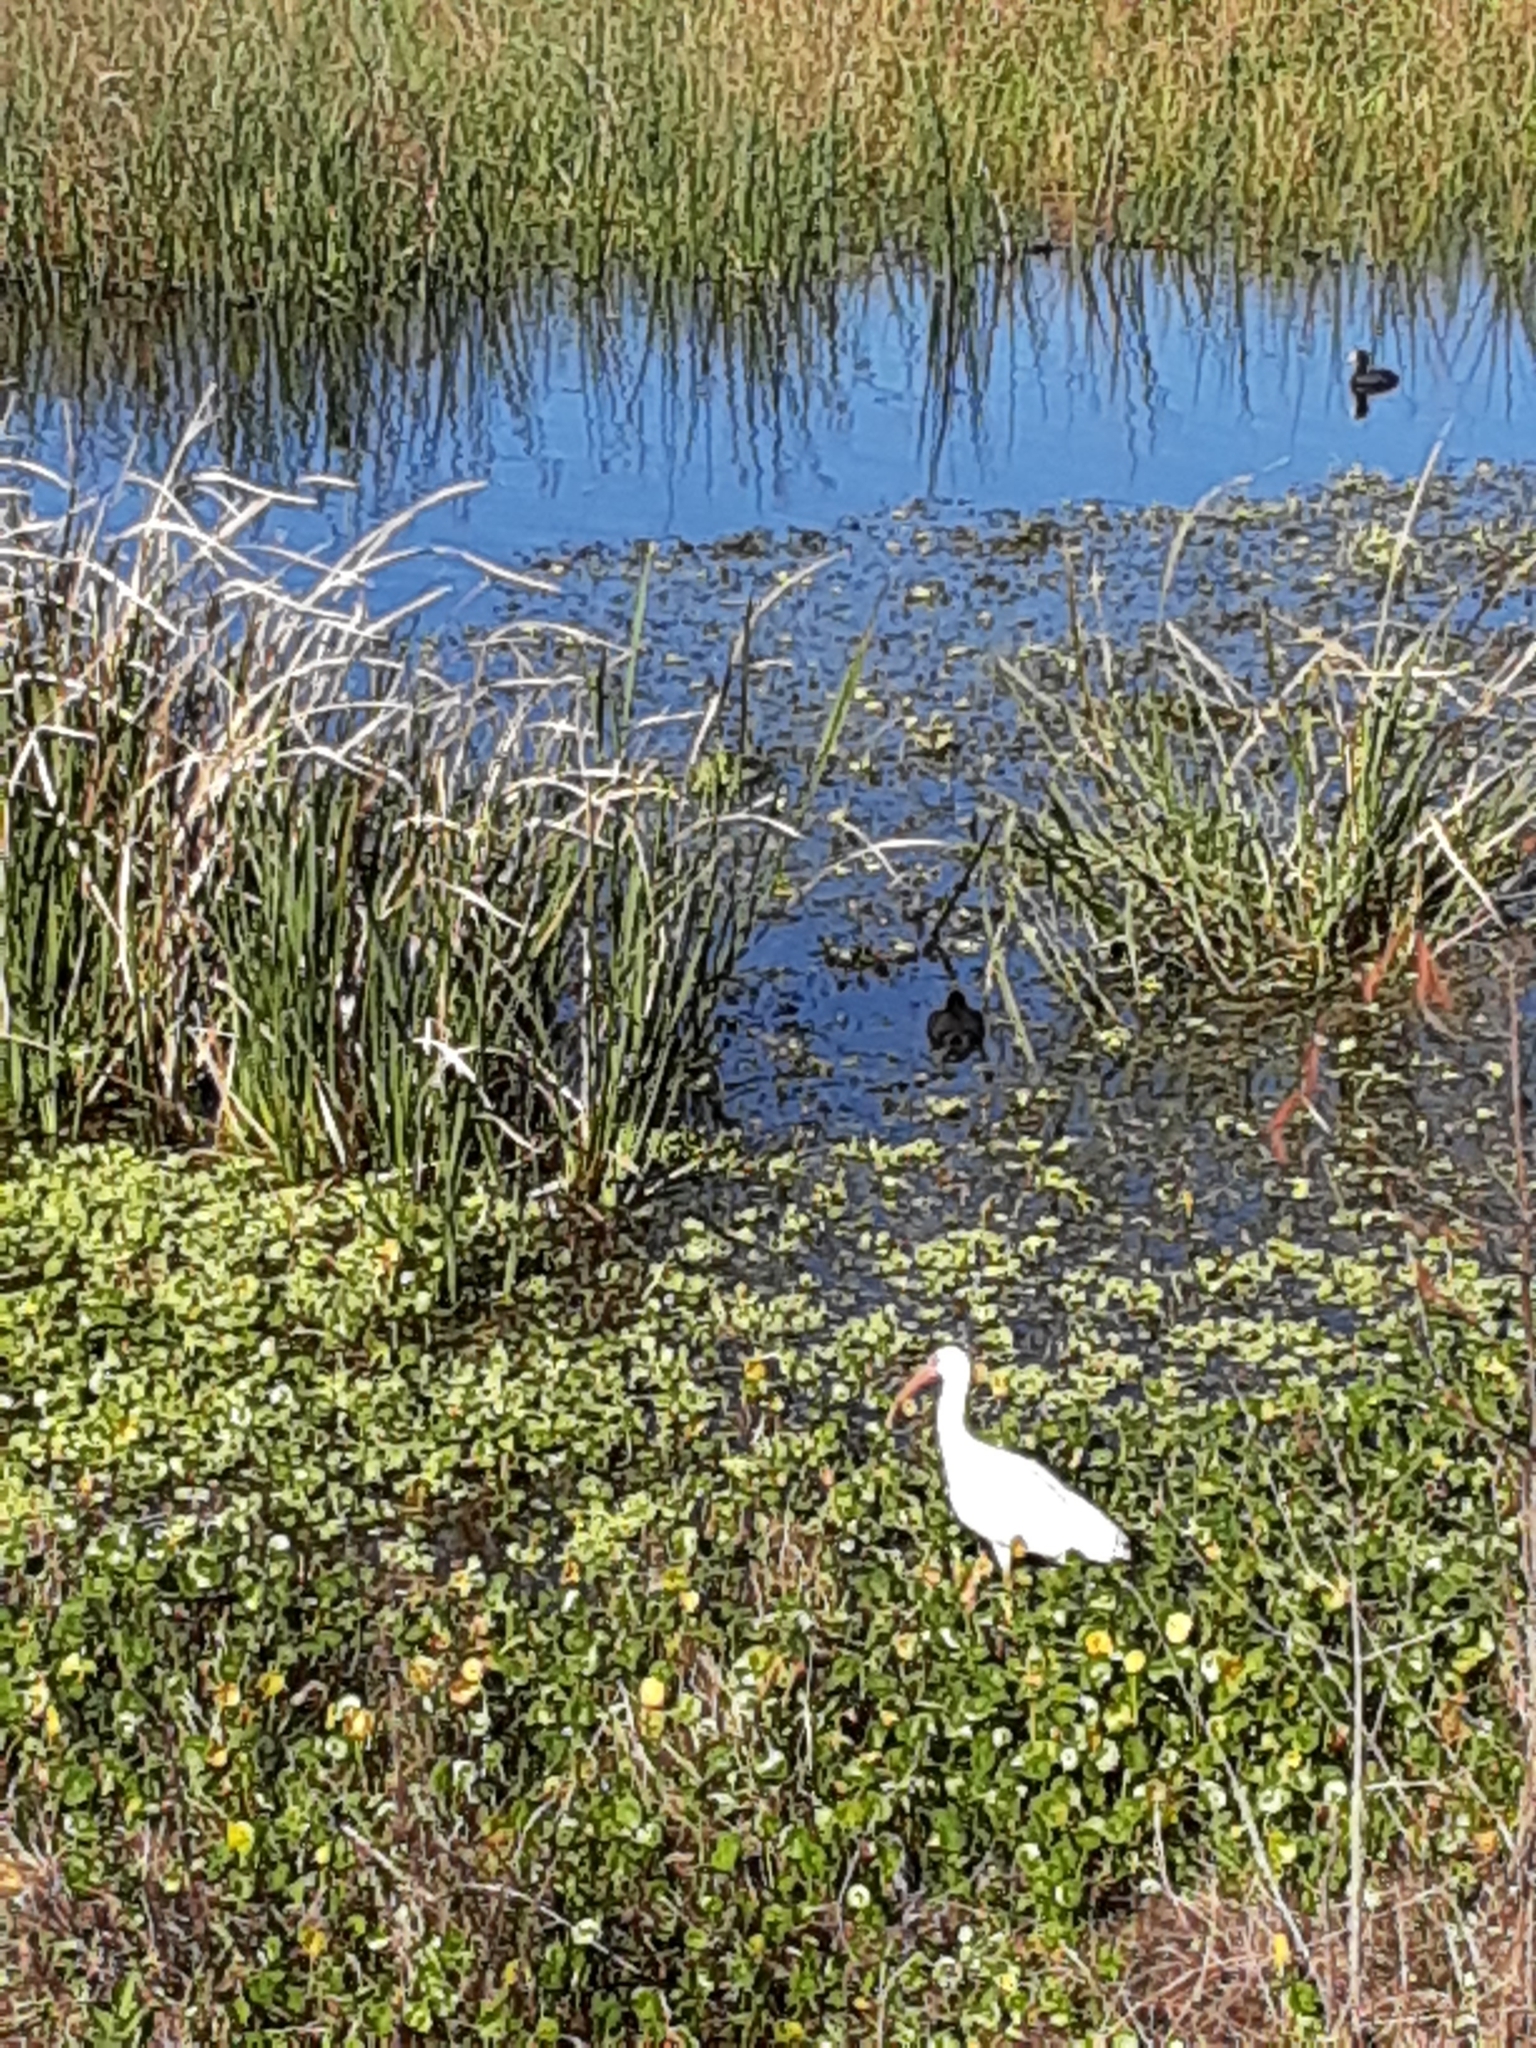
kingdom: Animalia
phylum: Chordata
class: Aves
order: Pelecaniformes
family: Threskiornithidae
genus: Eudocimus
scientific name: Eudocimus albus
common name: White ibis
